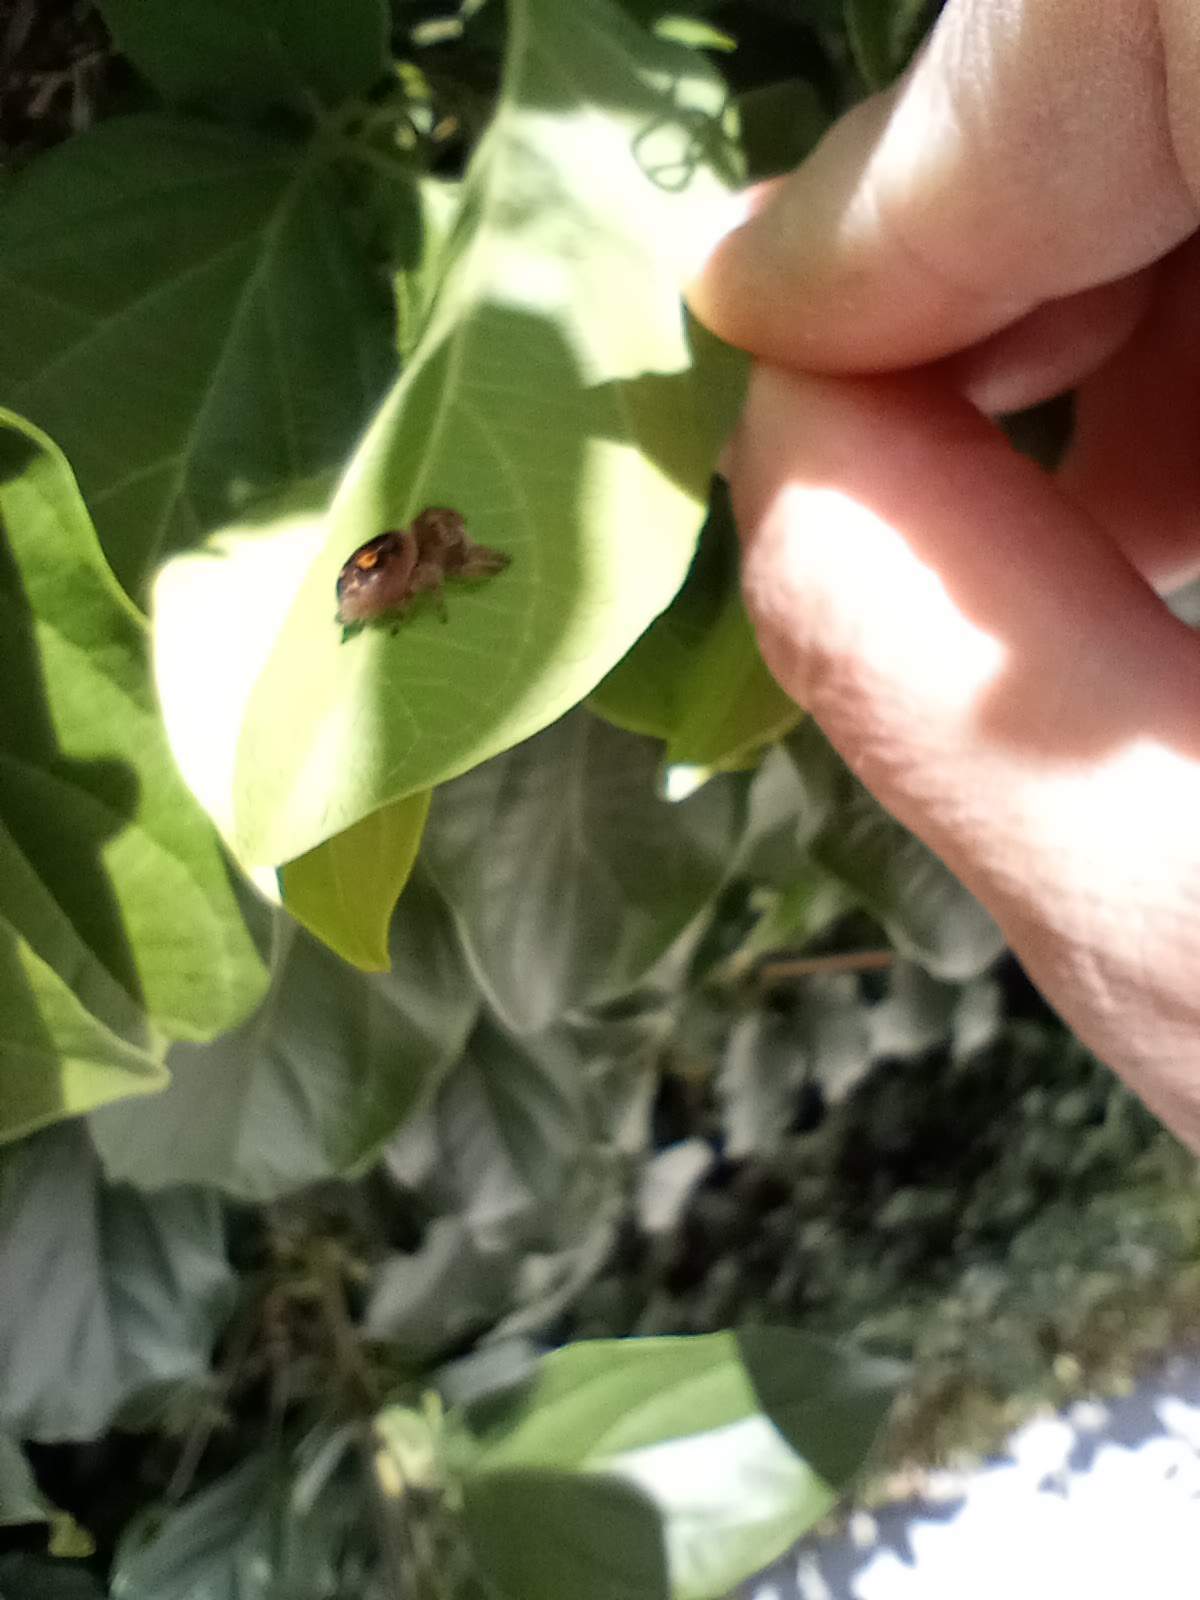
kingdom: Animalia
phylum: Arthropoda
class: Arachnida
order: Araneae
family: Salticidae
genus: Phidippus
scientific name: Phidippus audax
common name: Bold jumper
